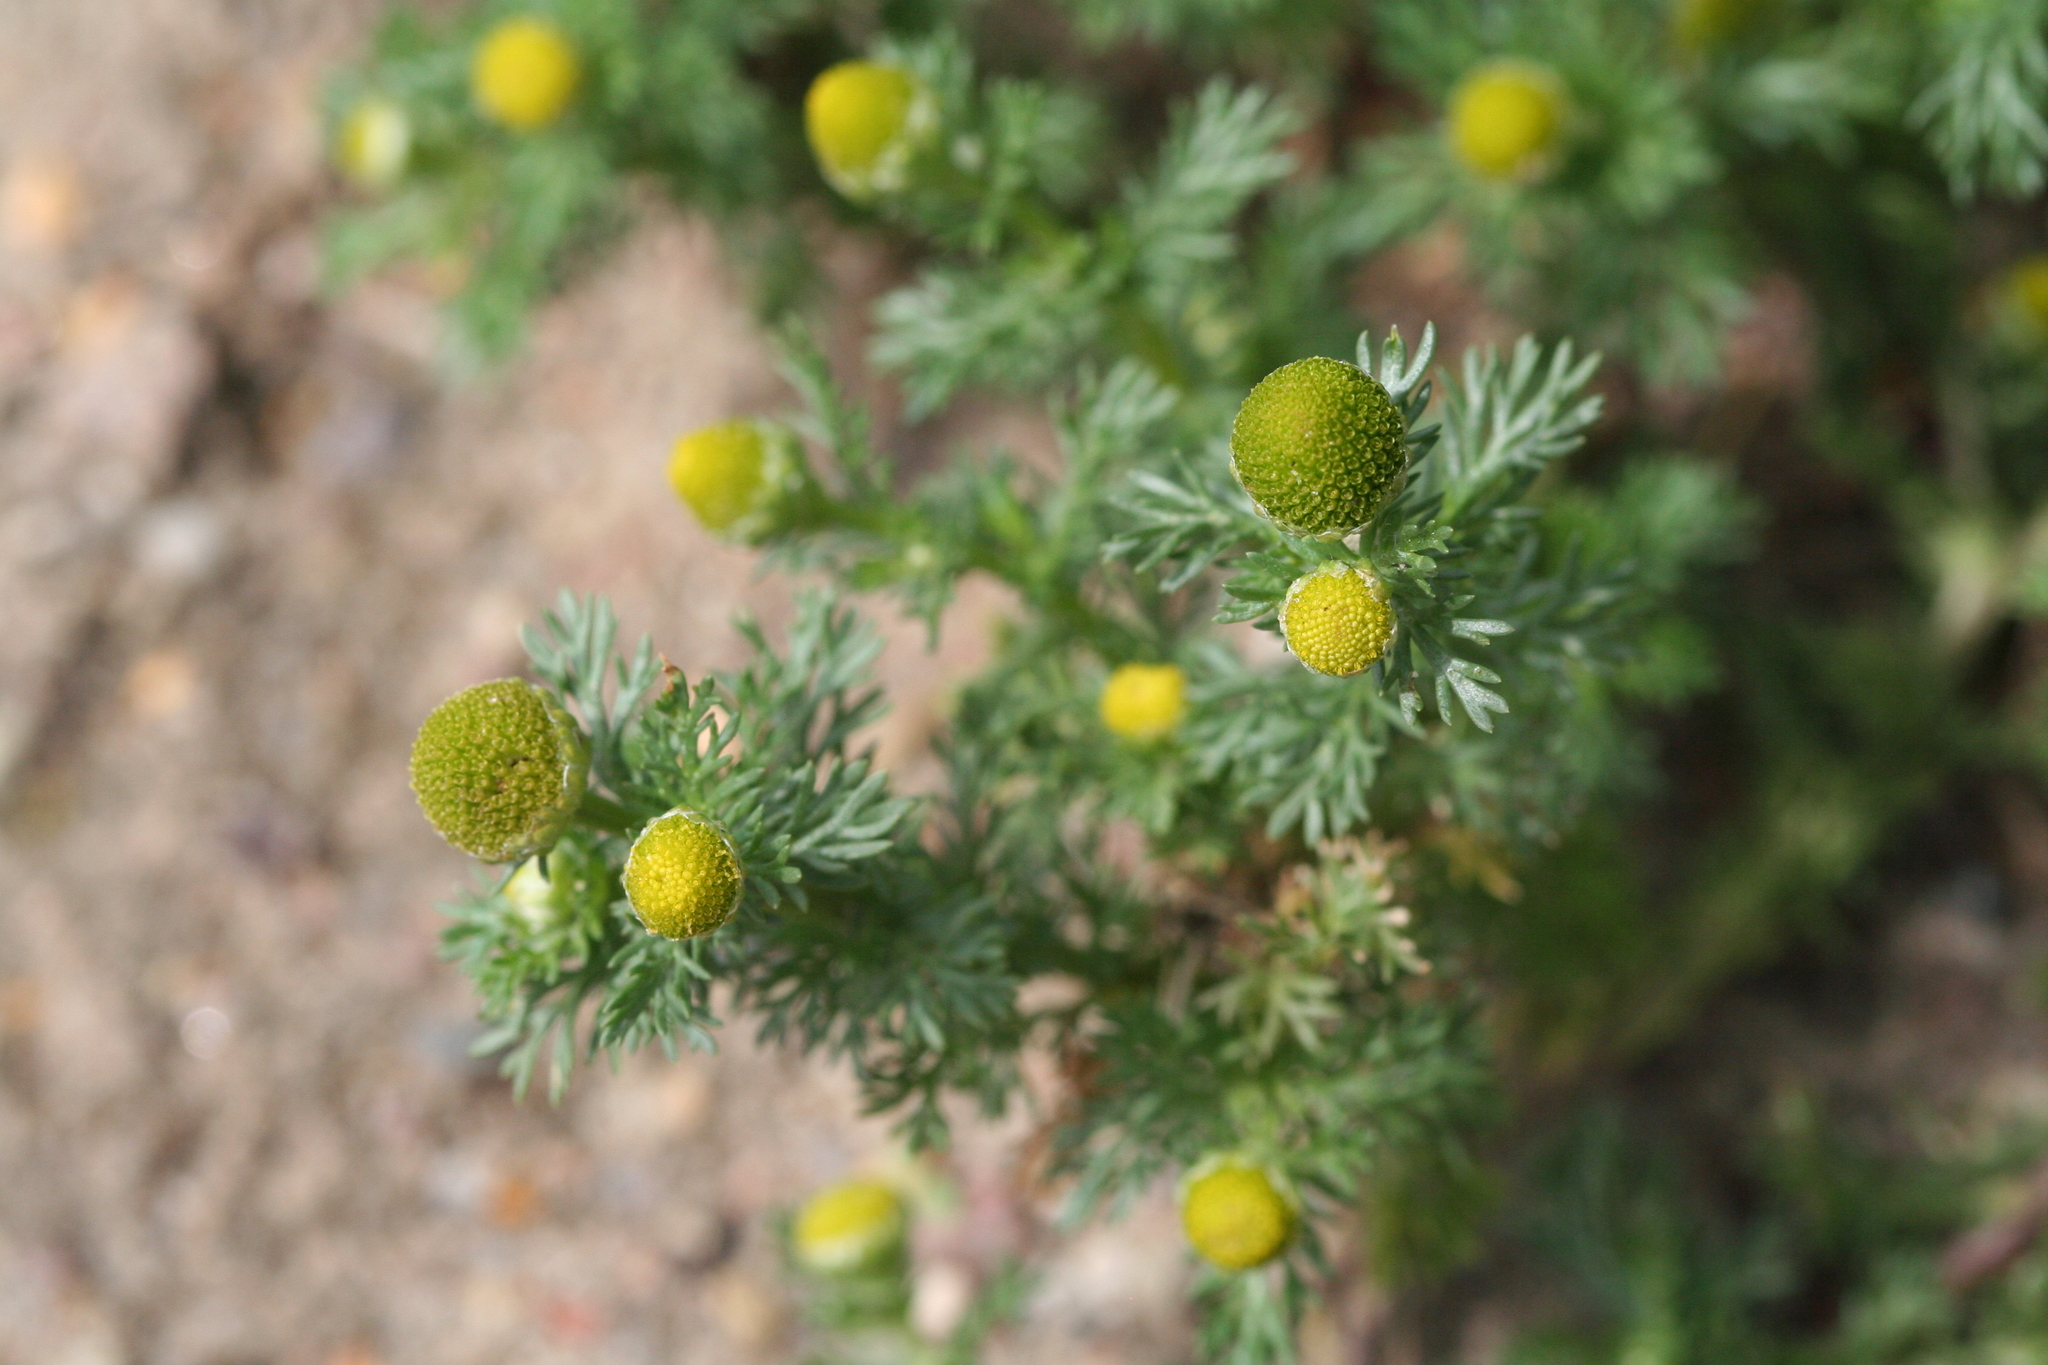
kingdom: Plantae
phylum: Tracheophyta
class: Magnoliopsida
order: Asterales
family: Asteraceae
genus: Matricaria
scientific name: Matricaria discoidea
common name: Disc mayweed
